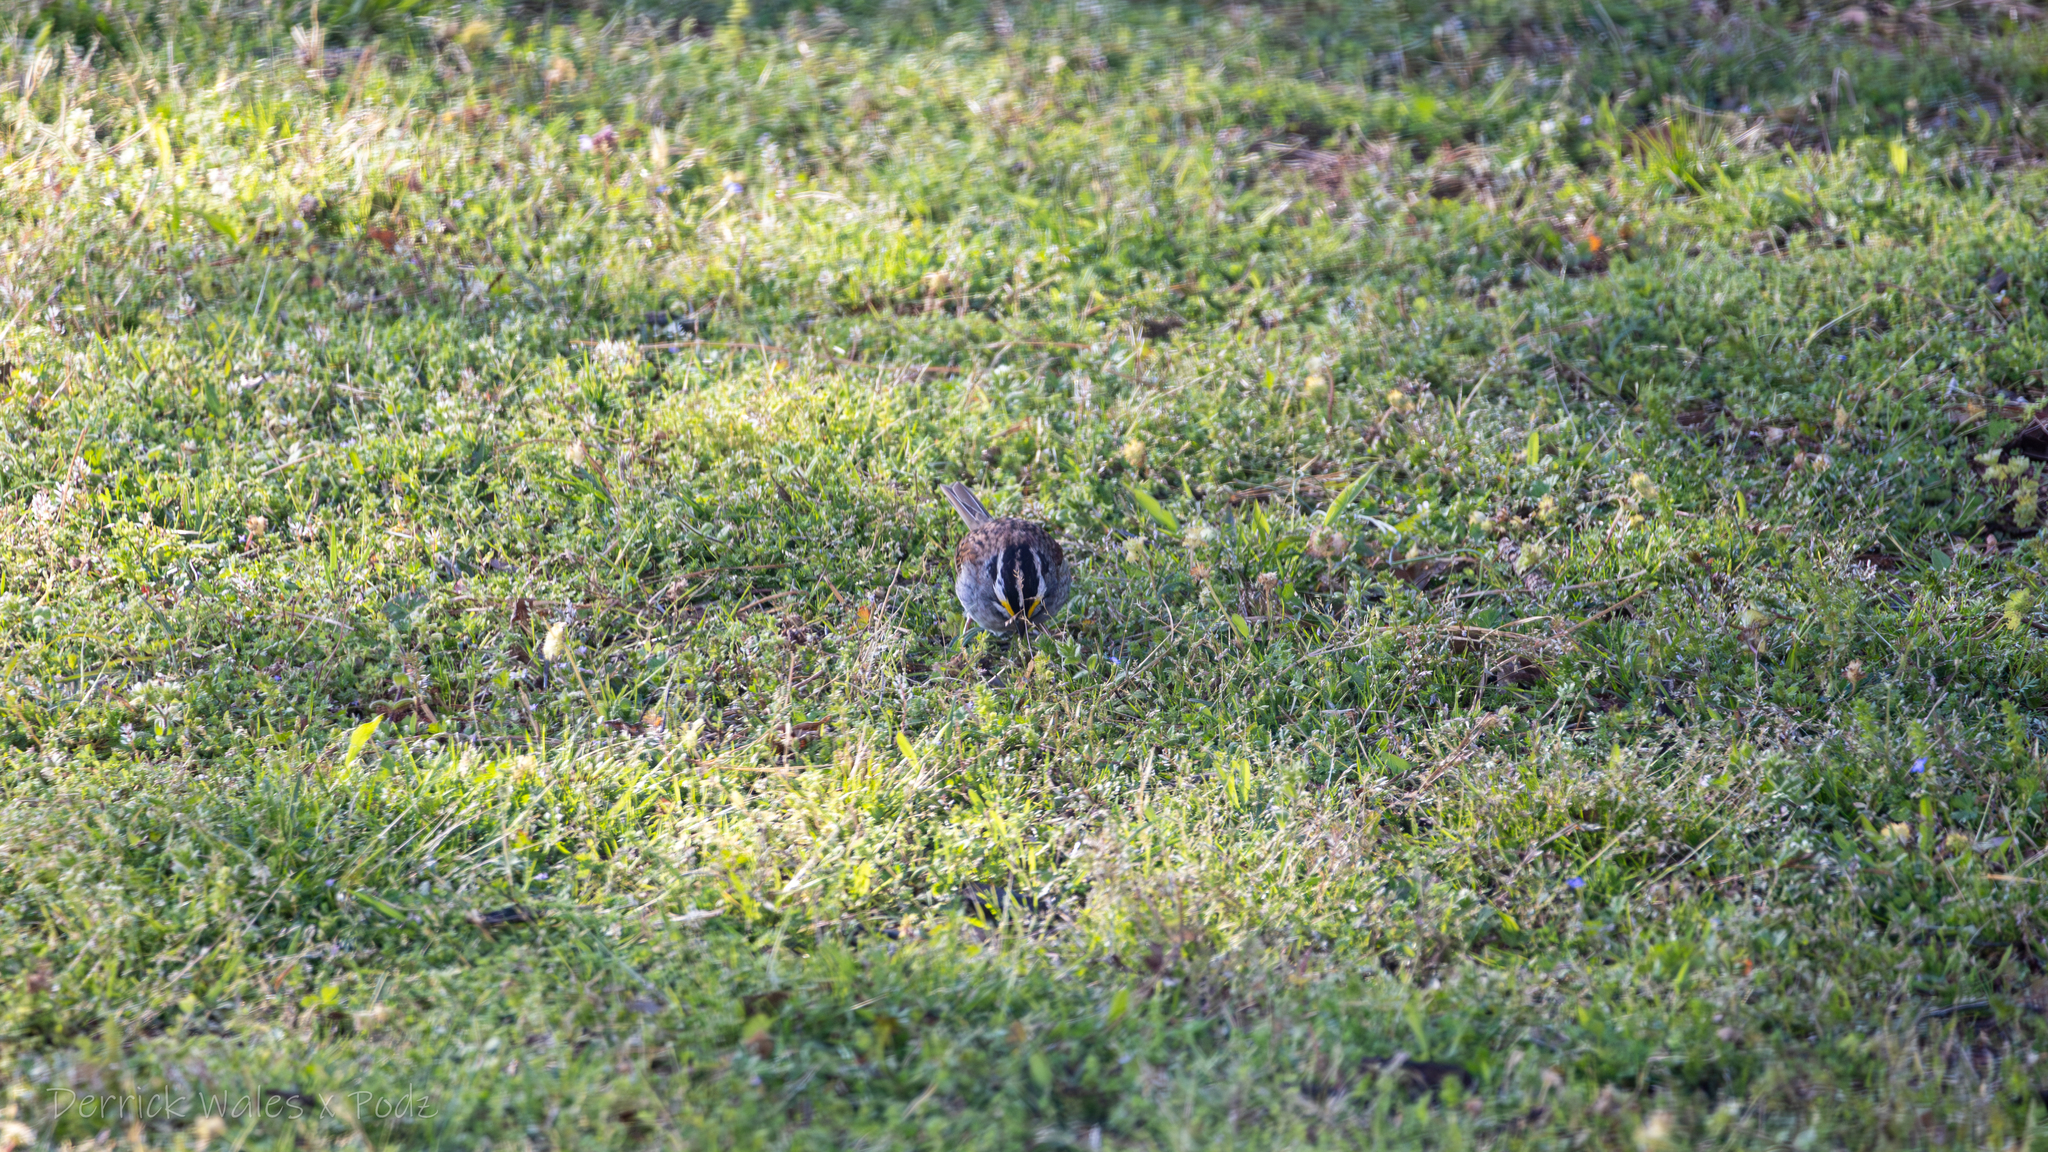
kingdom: Animalia
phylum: Chordata
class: Aves
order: Passeriformes
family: Passerellidae
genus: Zonotrichia
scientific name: Zonotrichia albicollis
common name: White-throated sparrow
